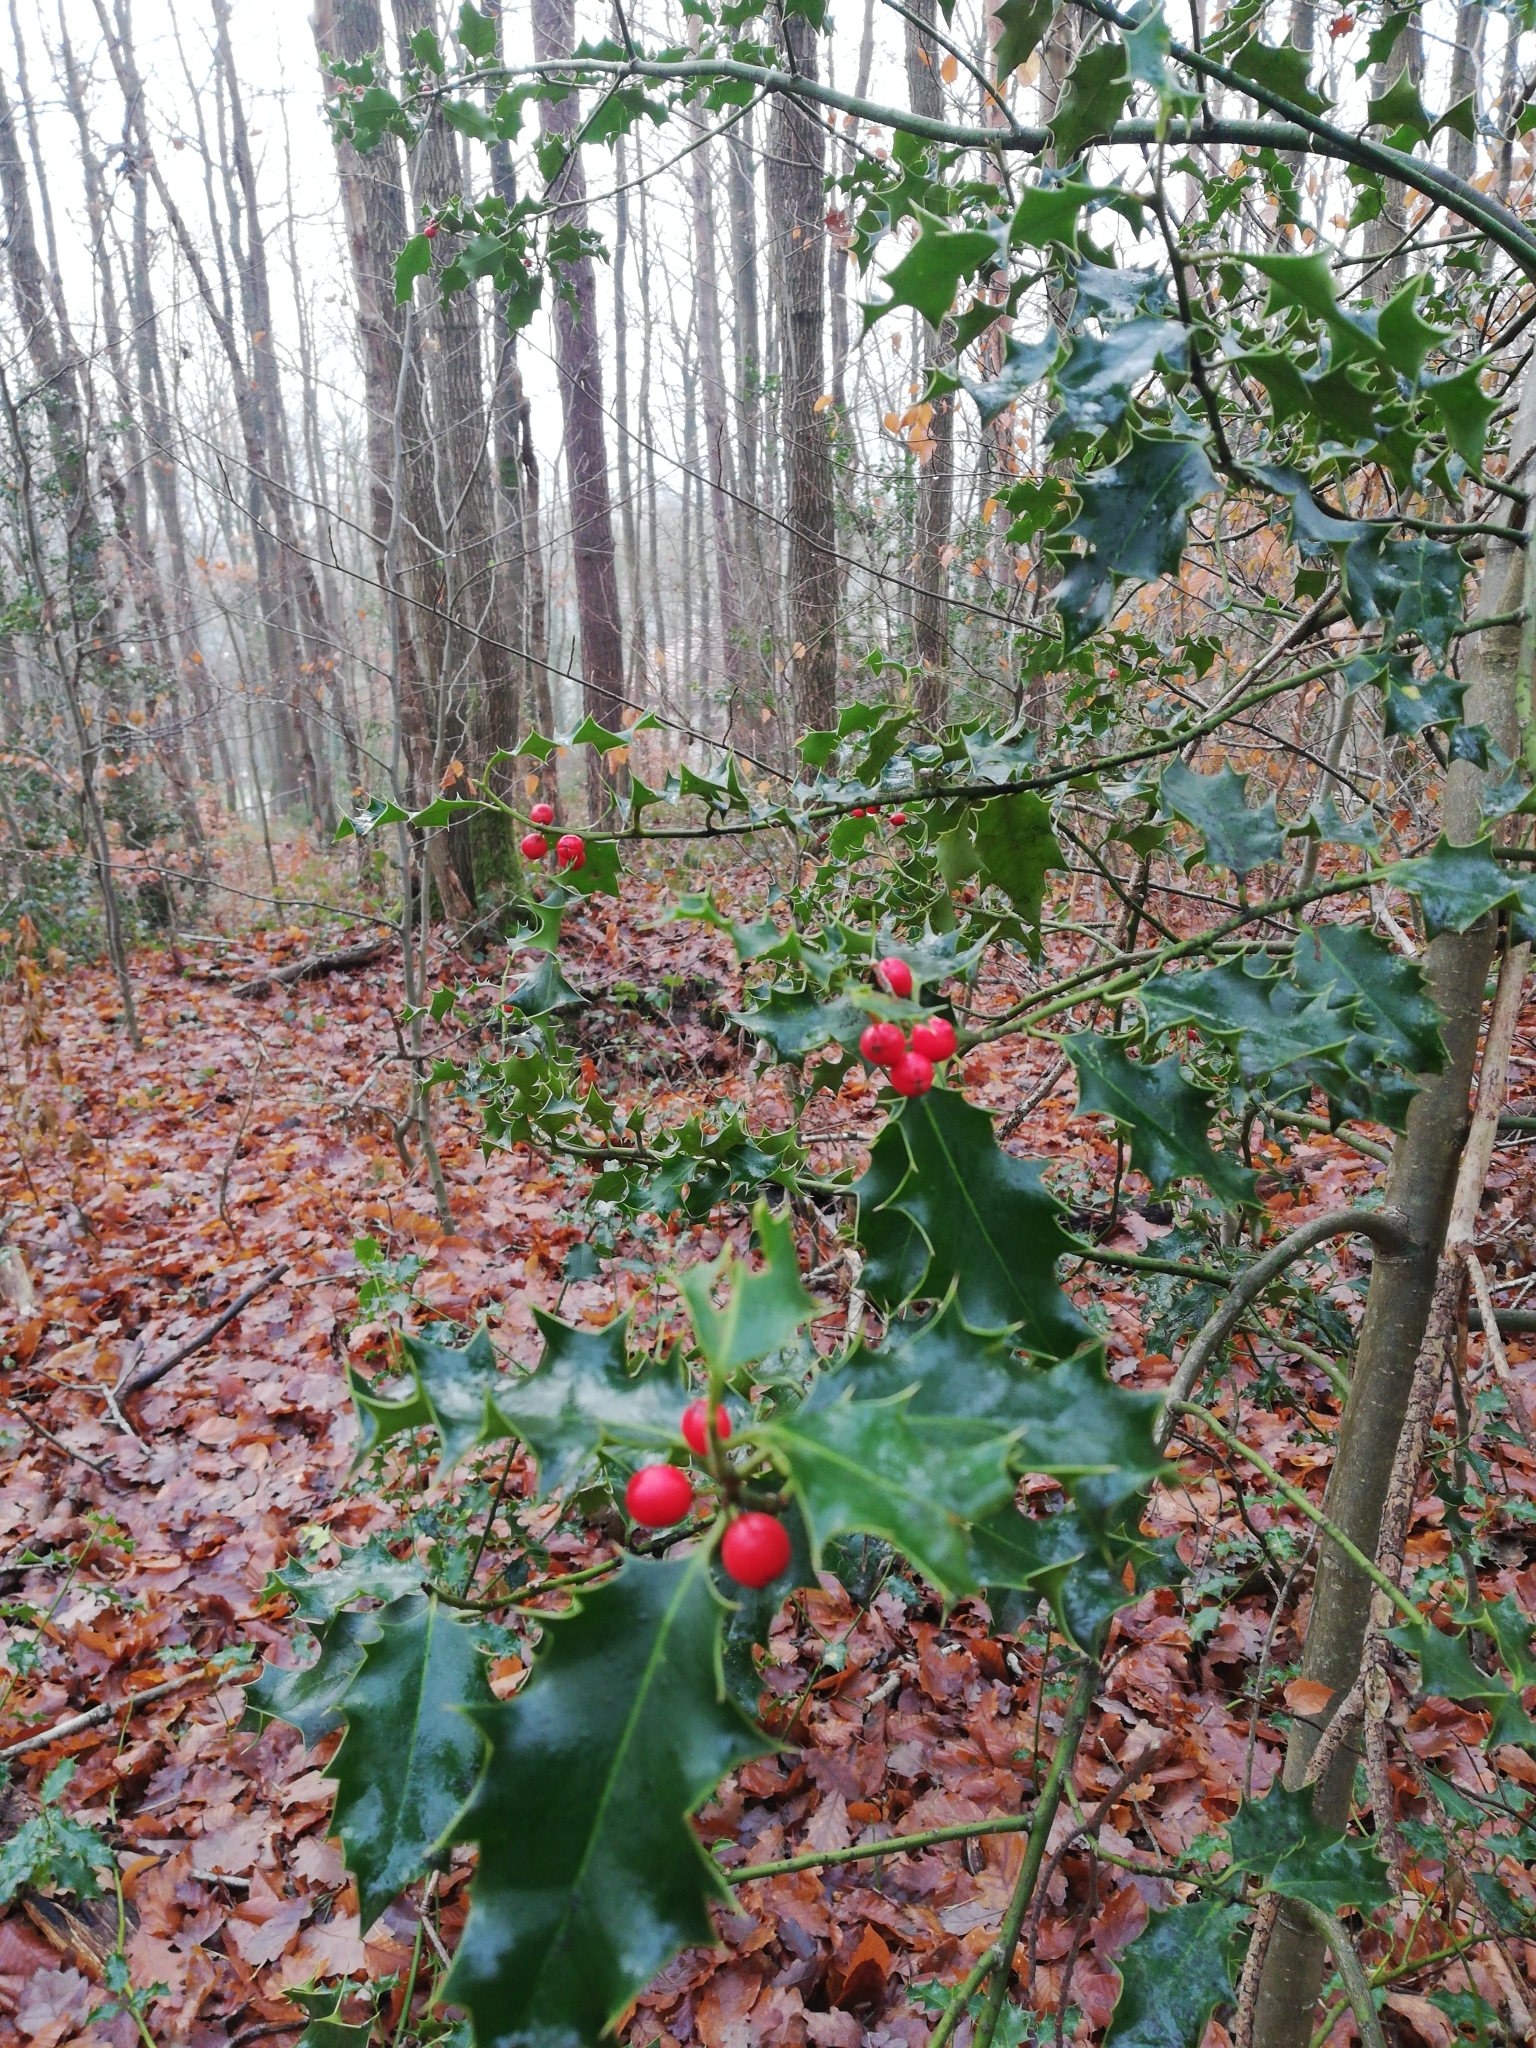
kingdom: Plantae
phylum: Tracheophyta
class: Magnoliopsida
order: Aquifoliales
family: Aquifoliaceae
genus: Ilex
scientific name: Ilex aquifolium
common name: English holly
